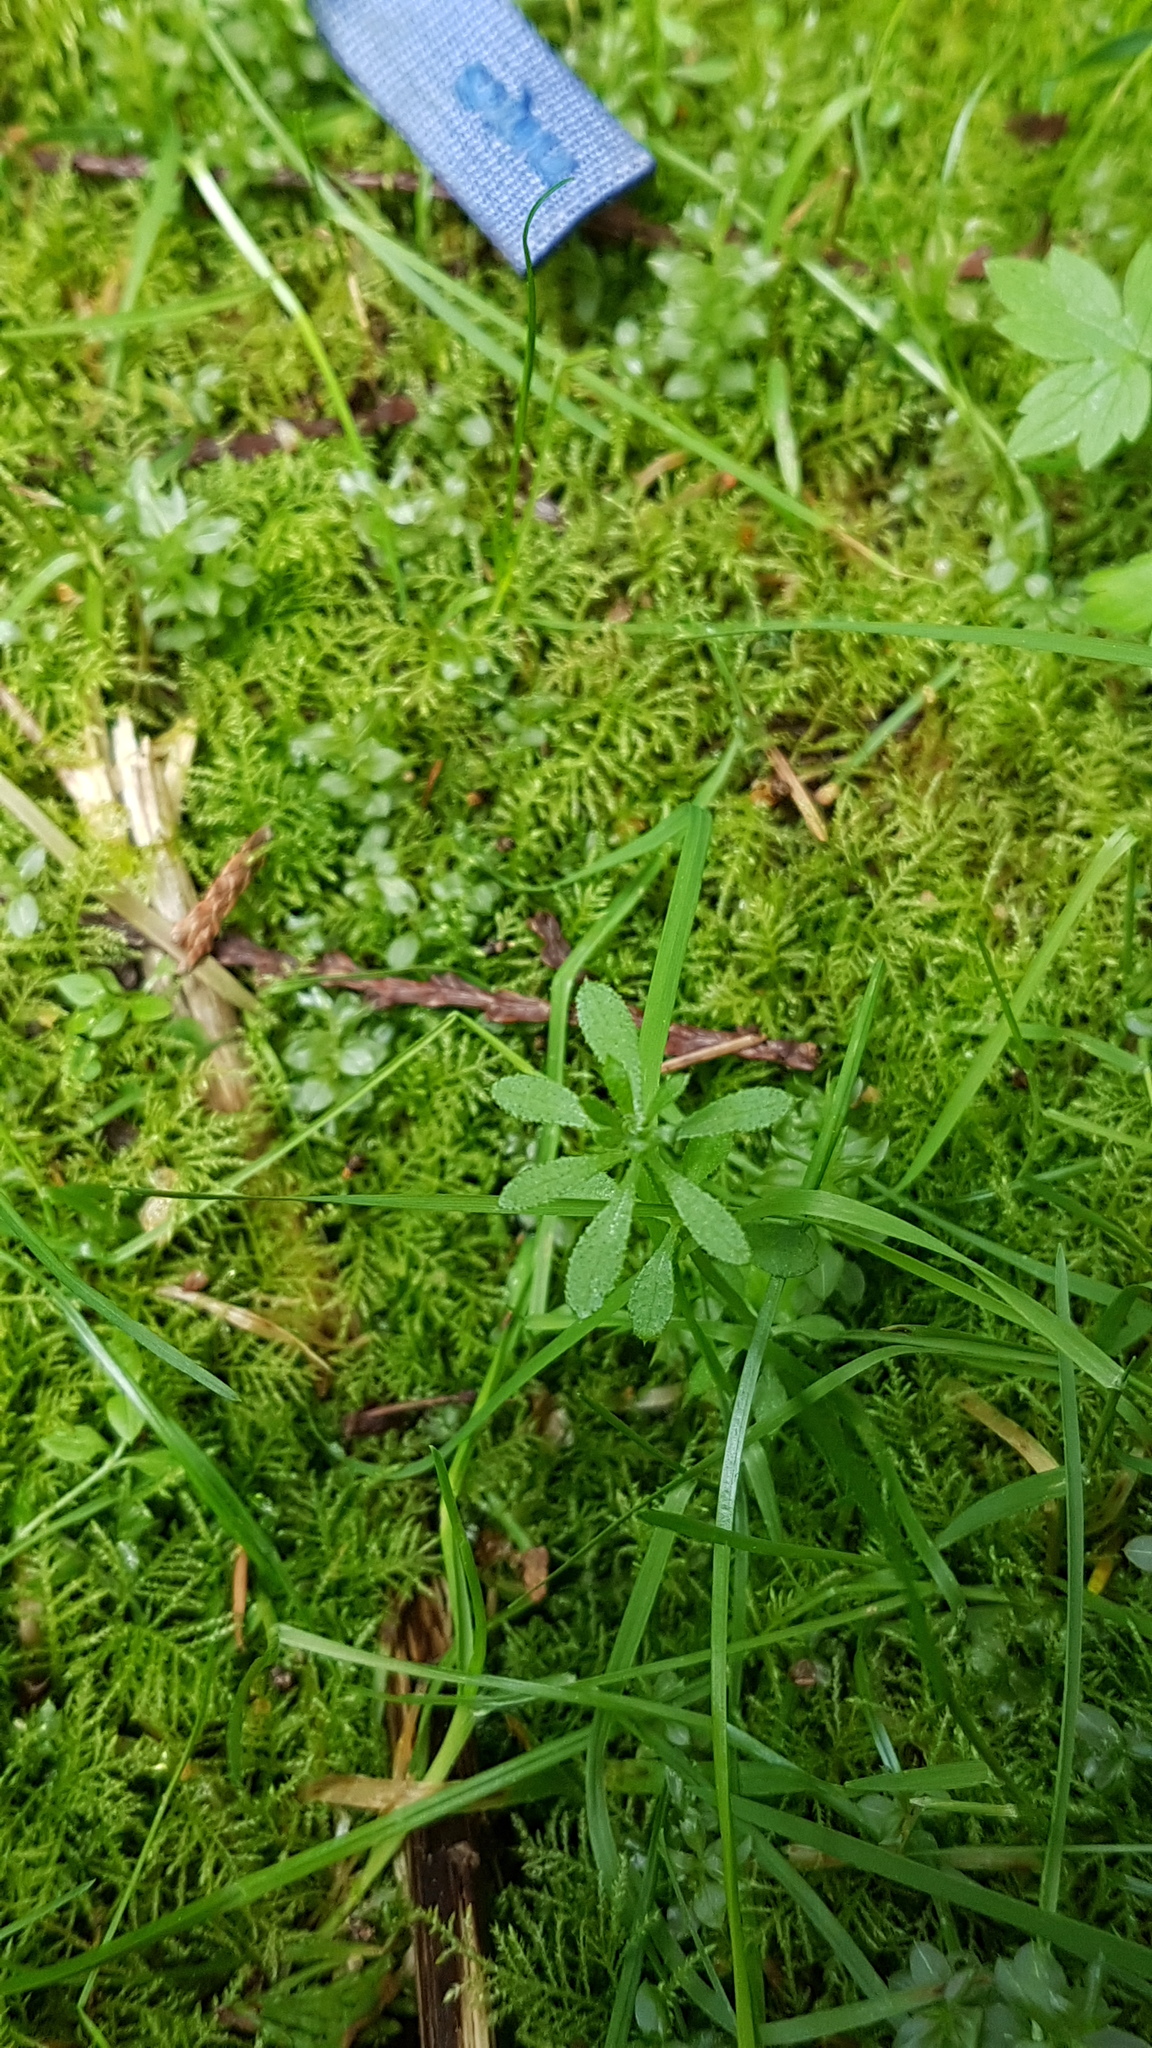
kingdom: Plantae
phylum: Tracheophyta
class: Magnoliopsida
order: Gentianales
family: Rubiaceae
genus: Galium
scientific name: Galium aparine
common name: Cleavers
